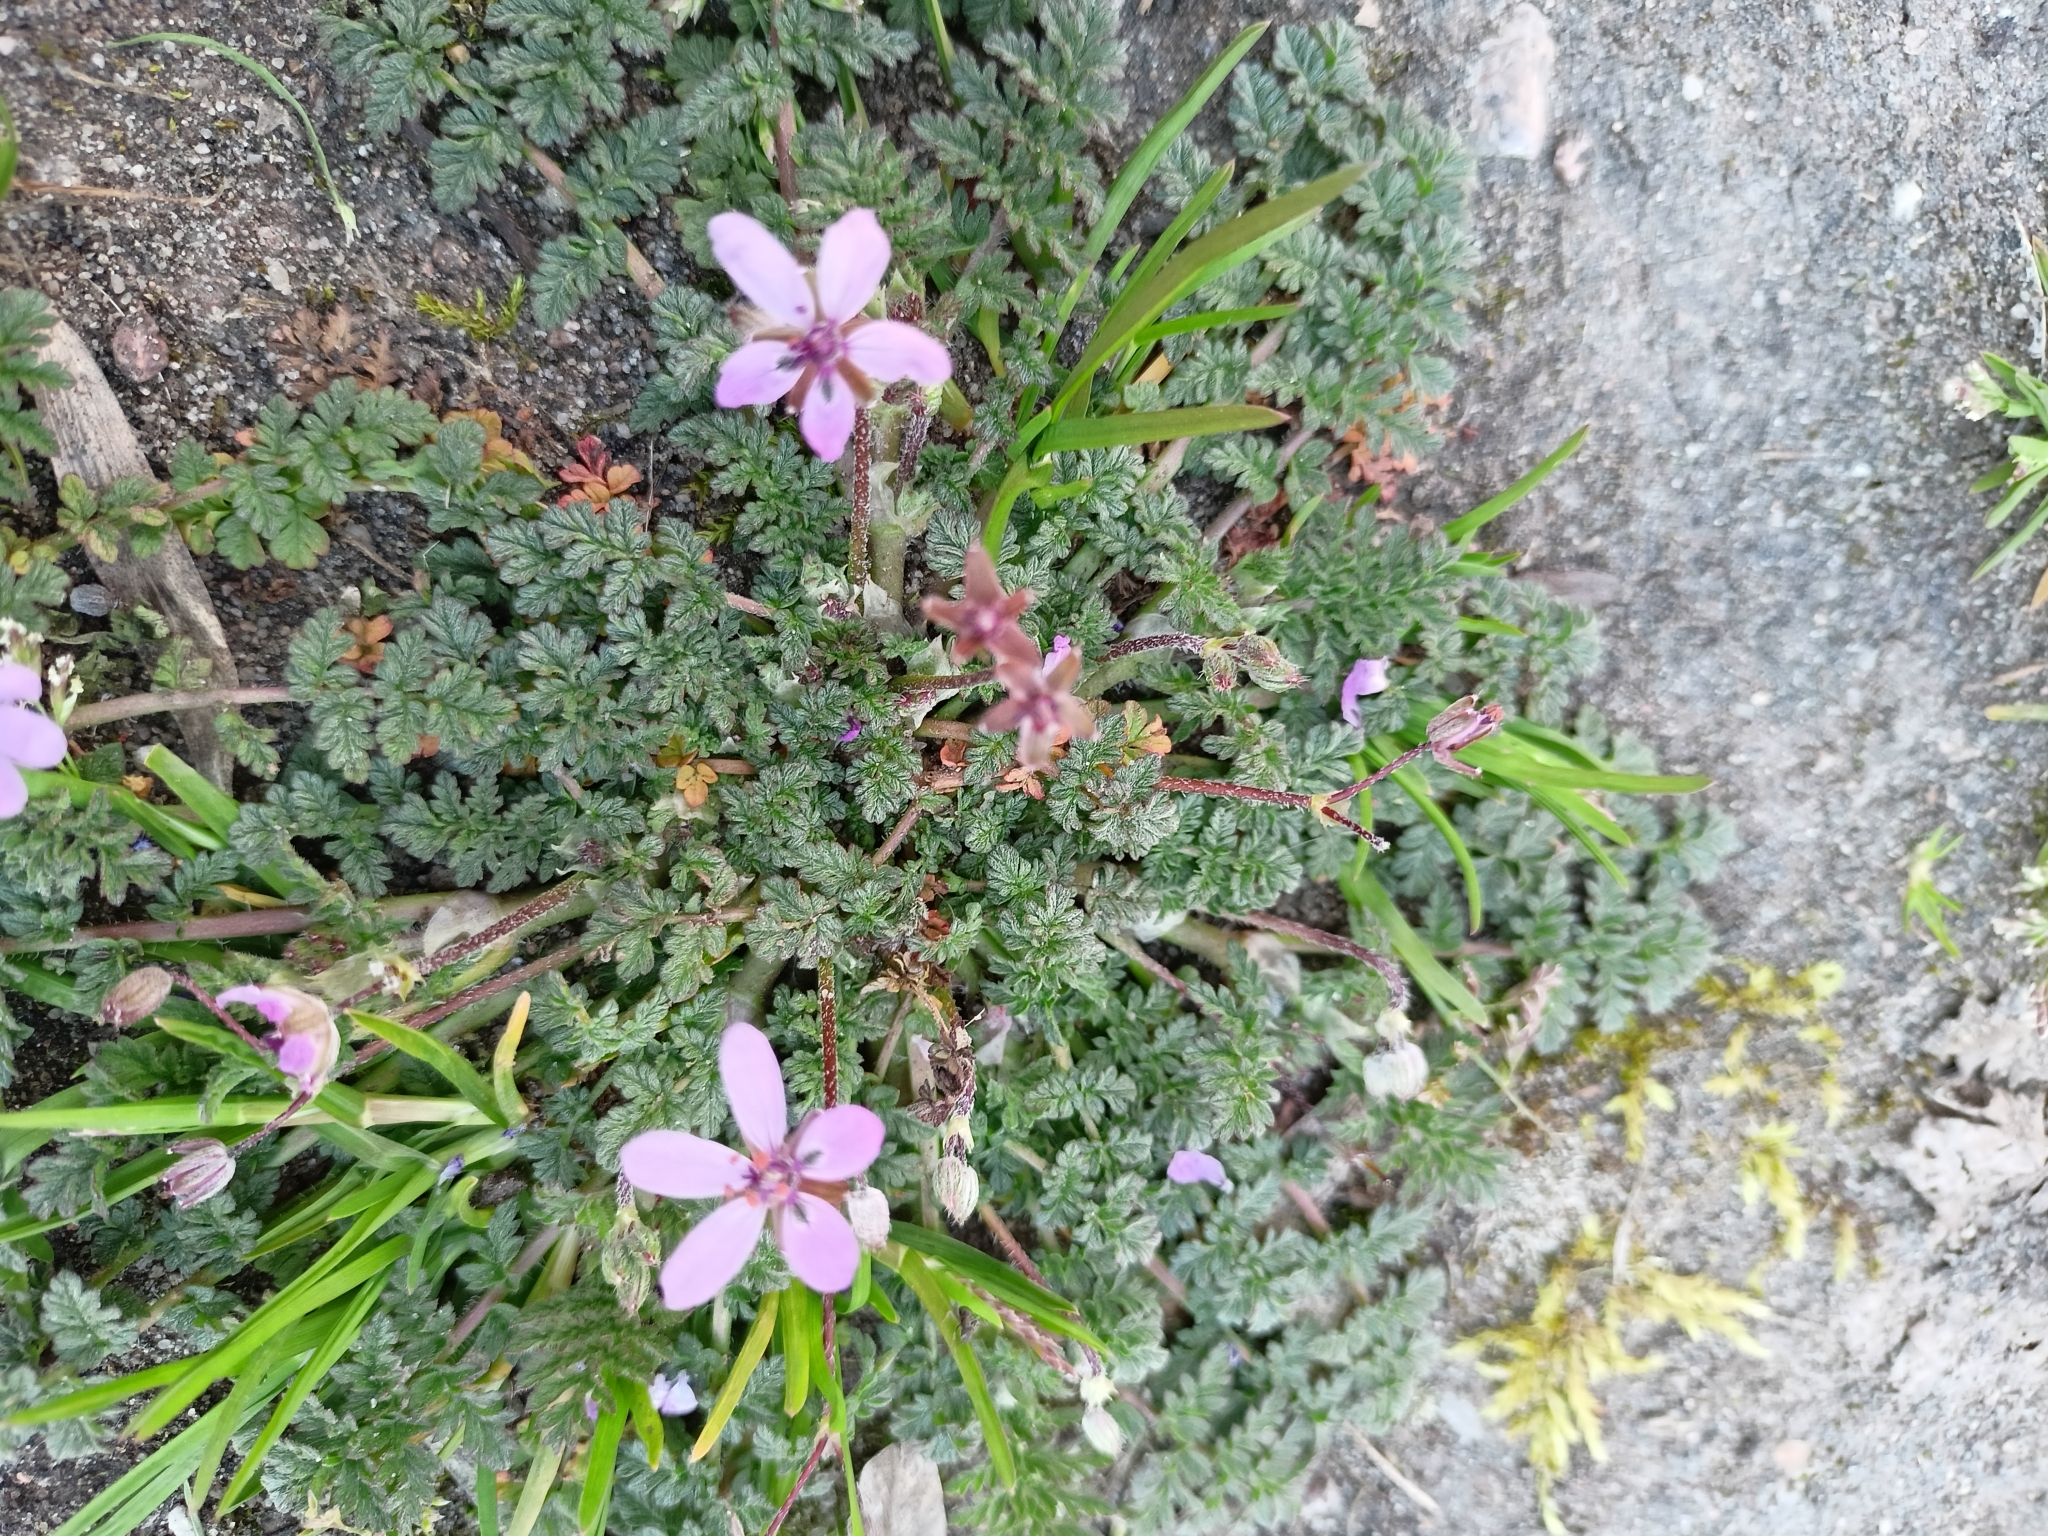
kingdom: Plantae
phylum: Tracheophyta
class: Magnoliopsida
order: Geraniales
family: Geraniaceae
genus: Erodium
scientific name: Erodium cicutarium
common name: Common stork's-bill
